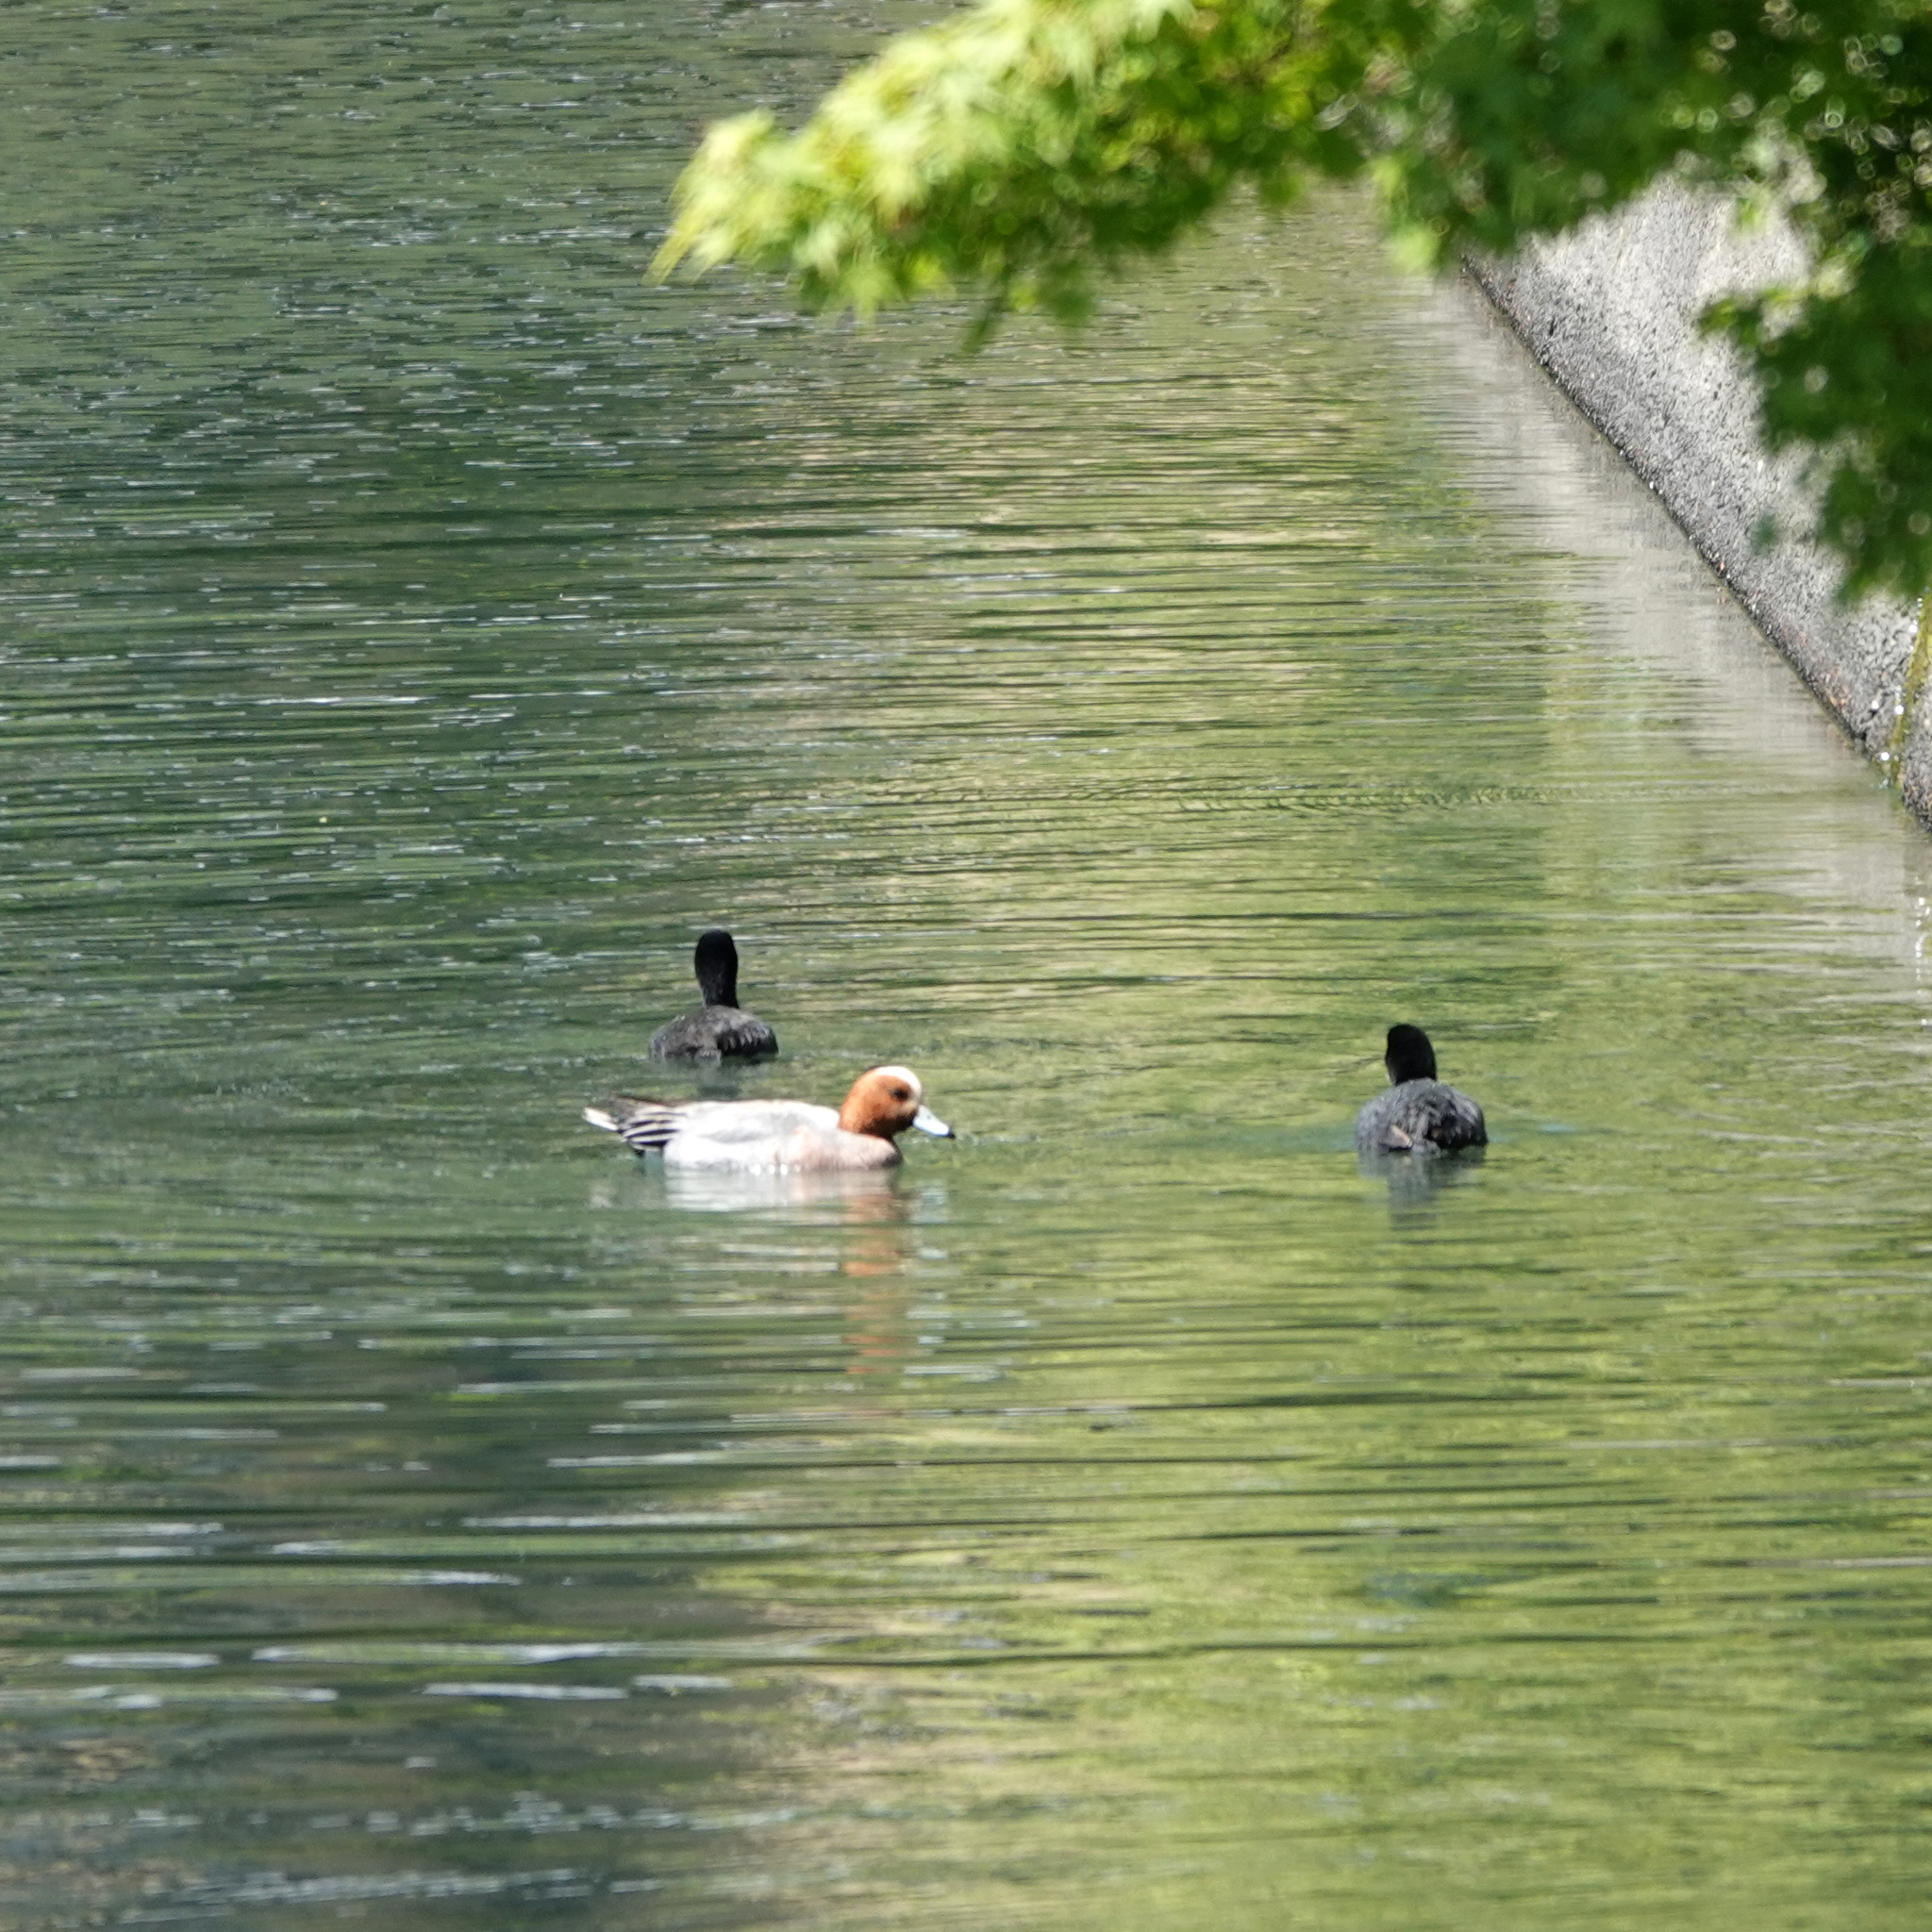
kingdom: Animalia
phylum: Chordata
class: Aves
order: Anseriformes
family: Anatidae
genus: Mareca
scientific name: Mareca penelope
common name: Eurasian wigeon
